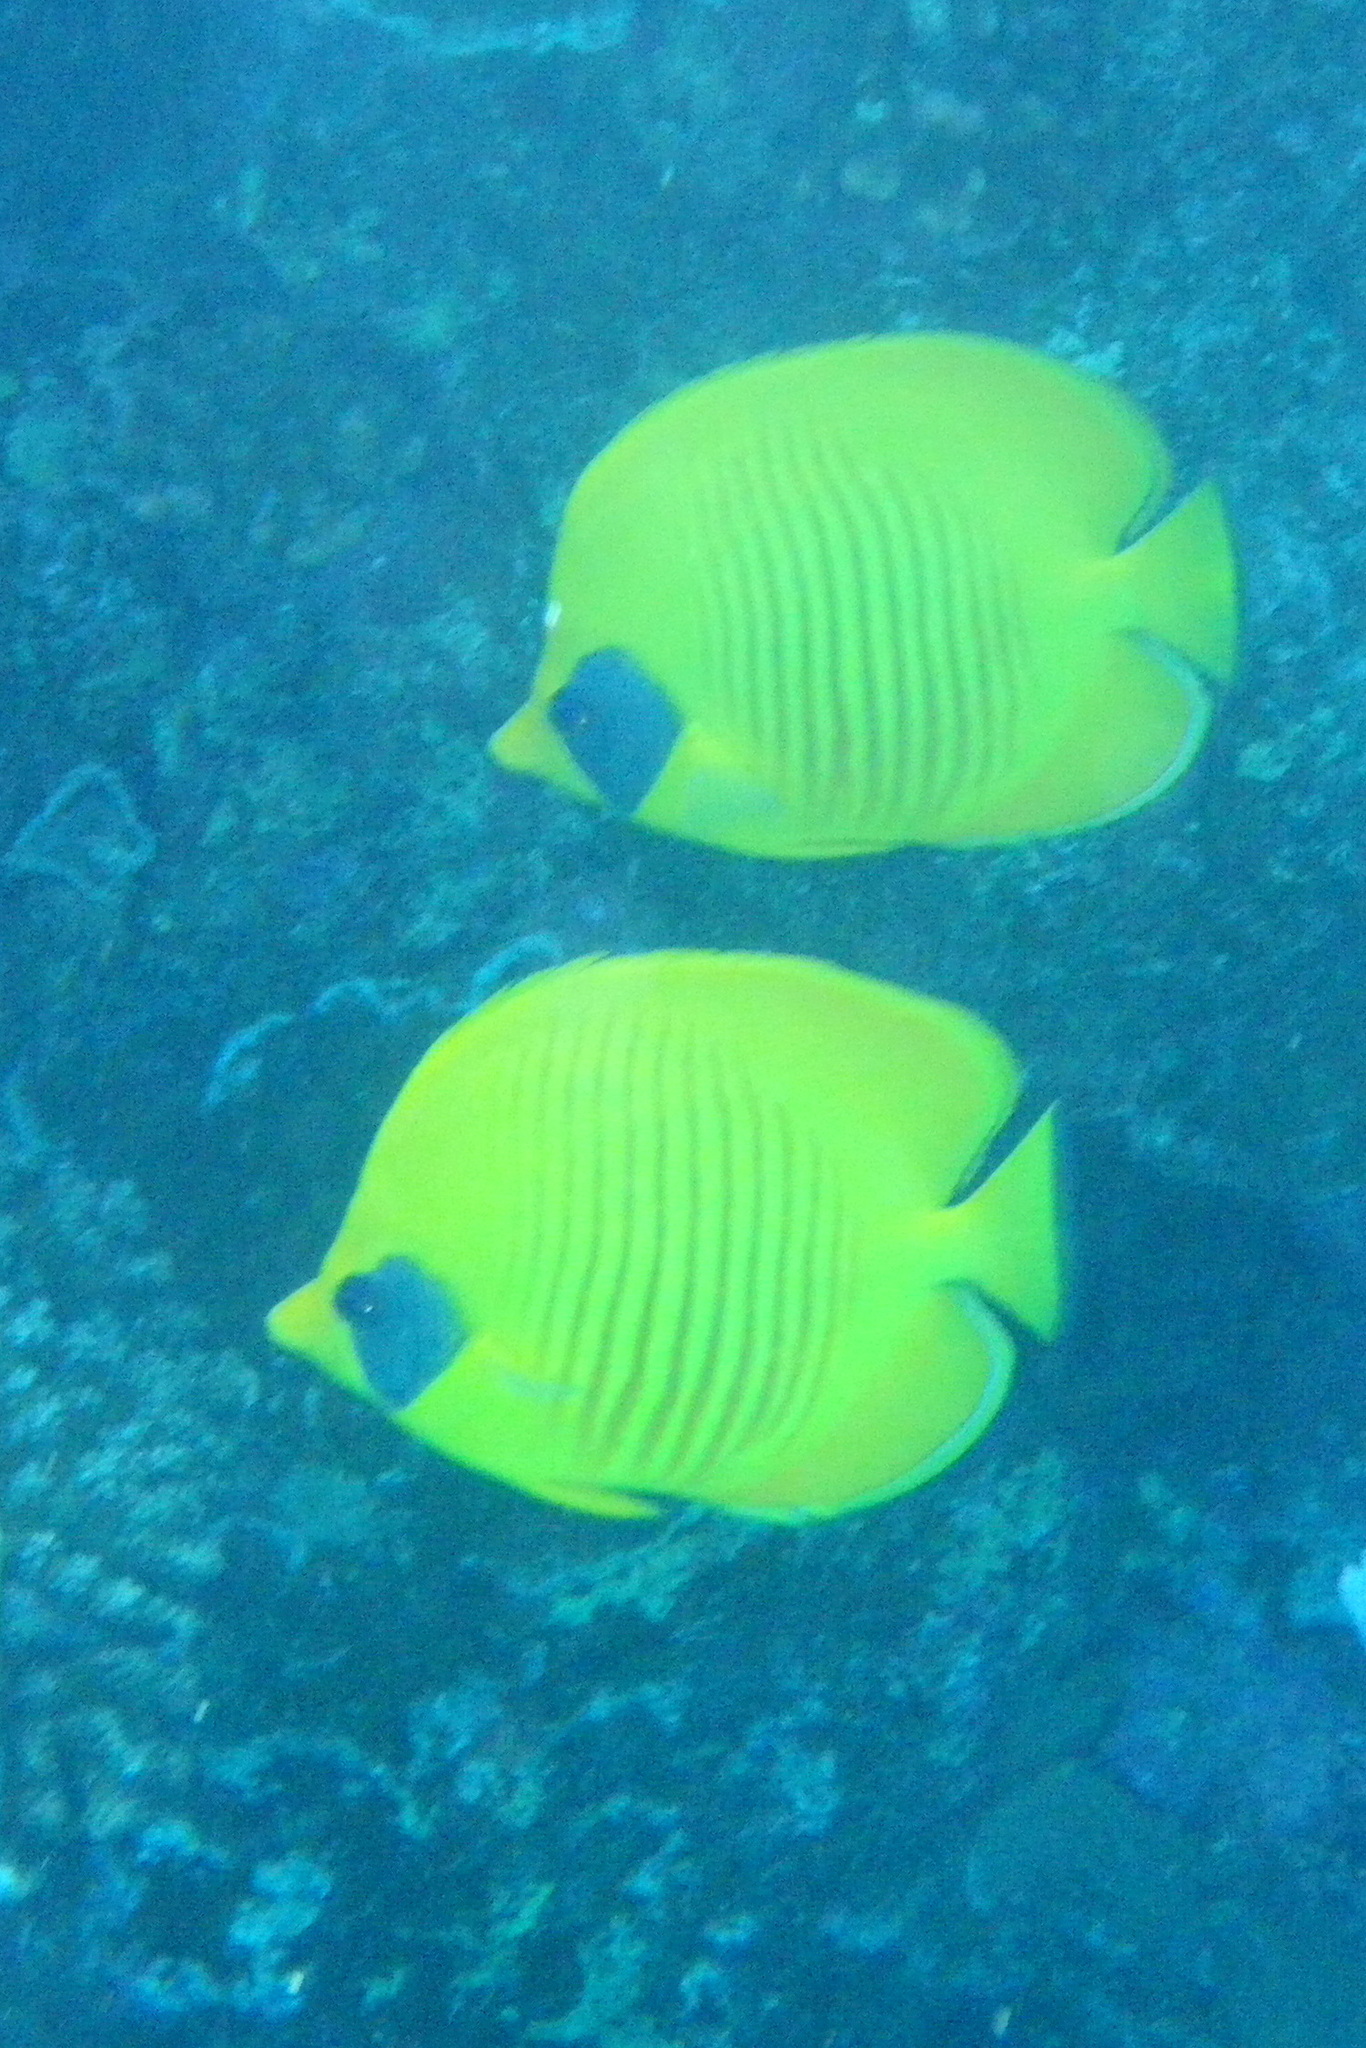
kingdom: Animalia
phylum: Chordata
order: Perciformes
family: Chaetodontidae
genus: Chaetodon
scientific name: Chaetodon semilarvatus
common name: Golden butterflyfish
